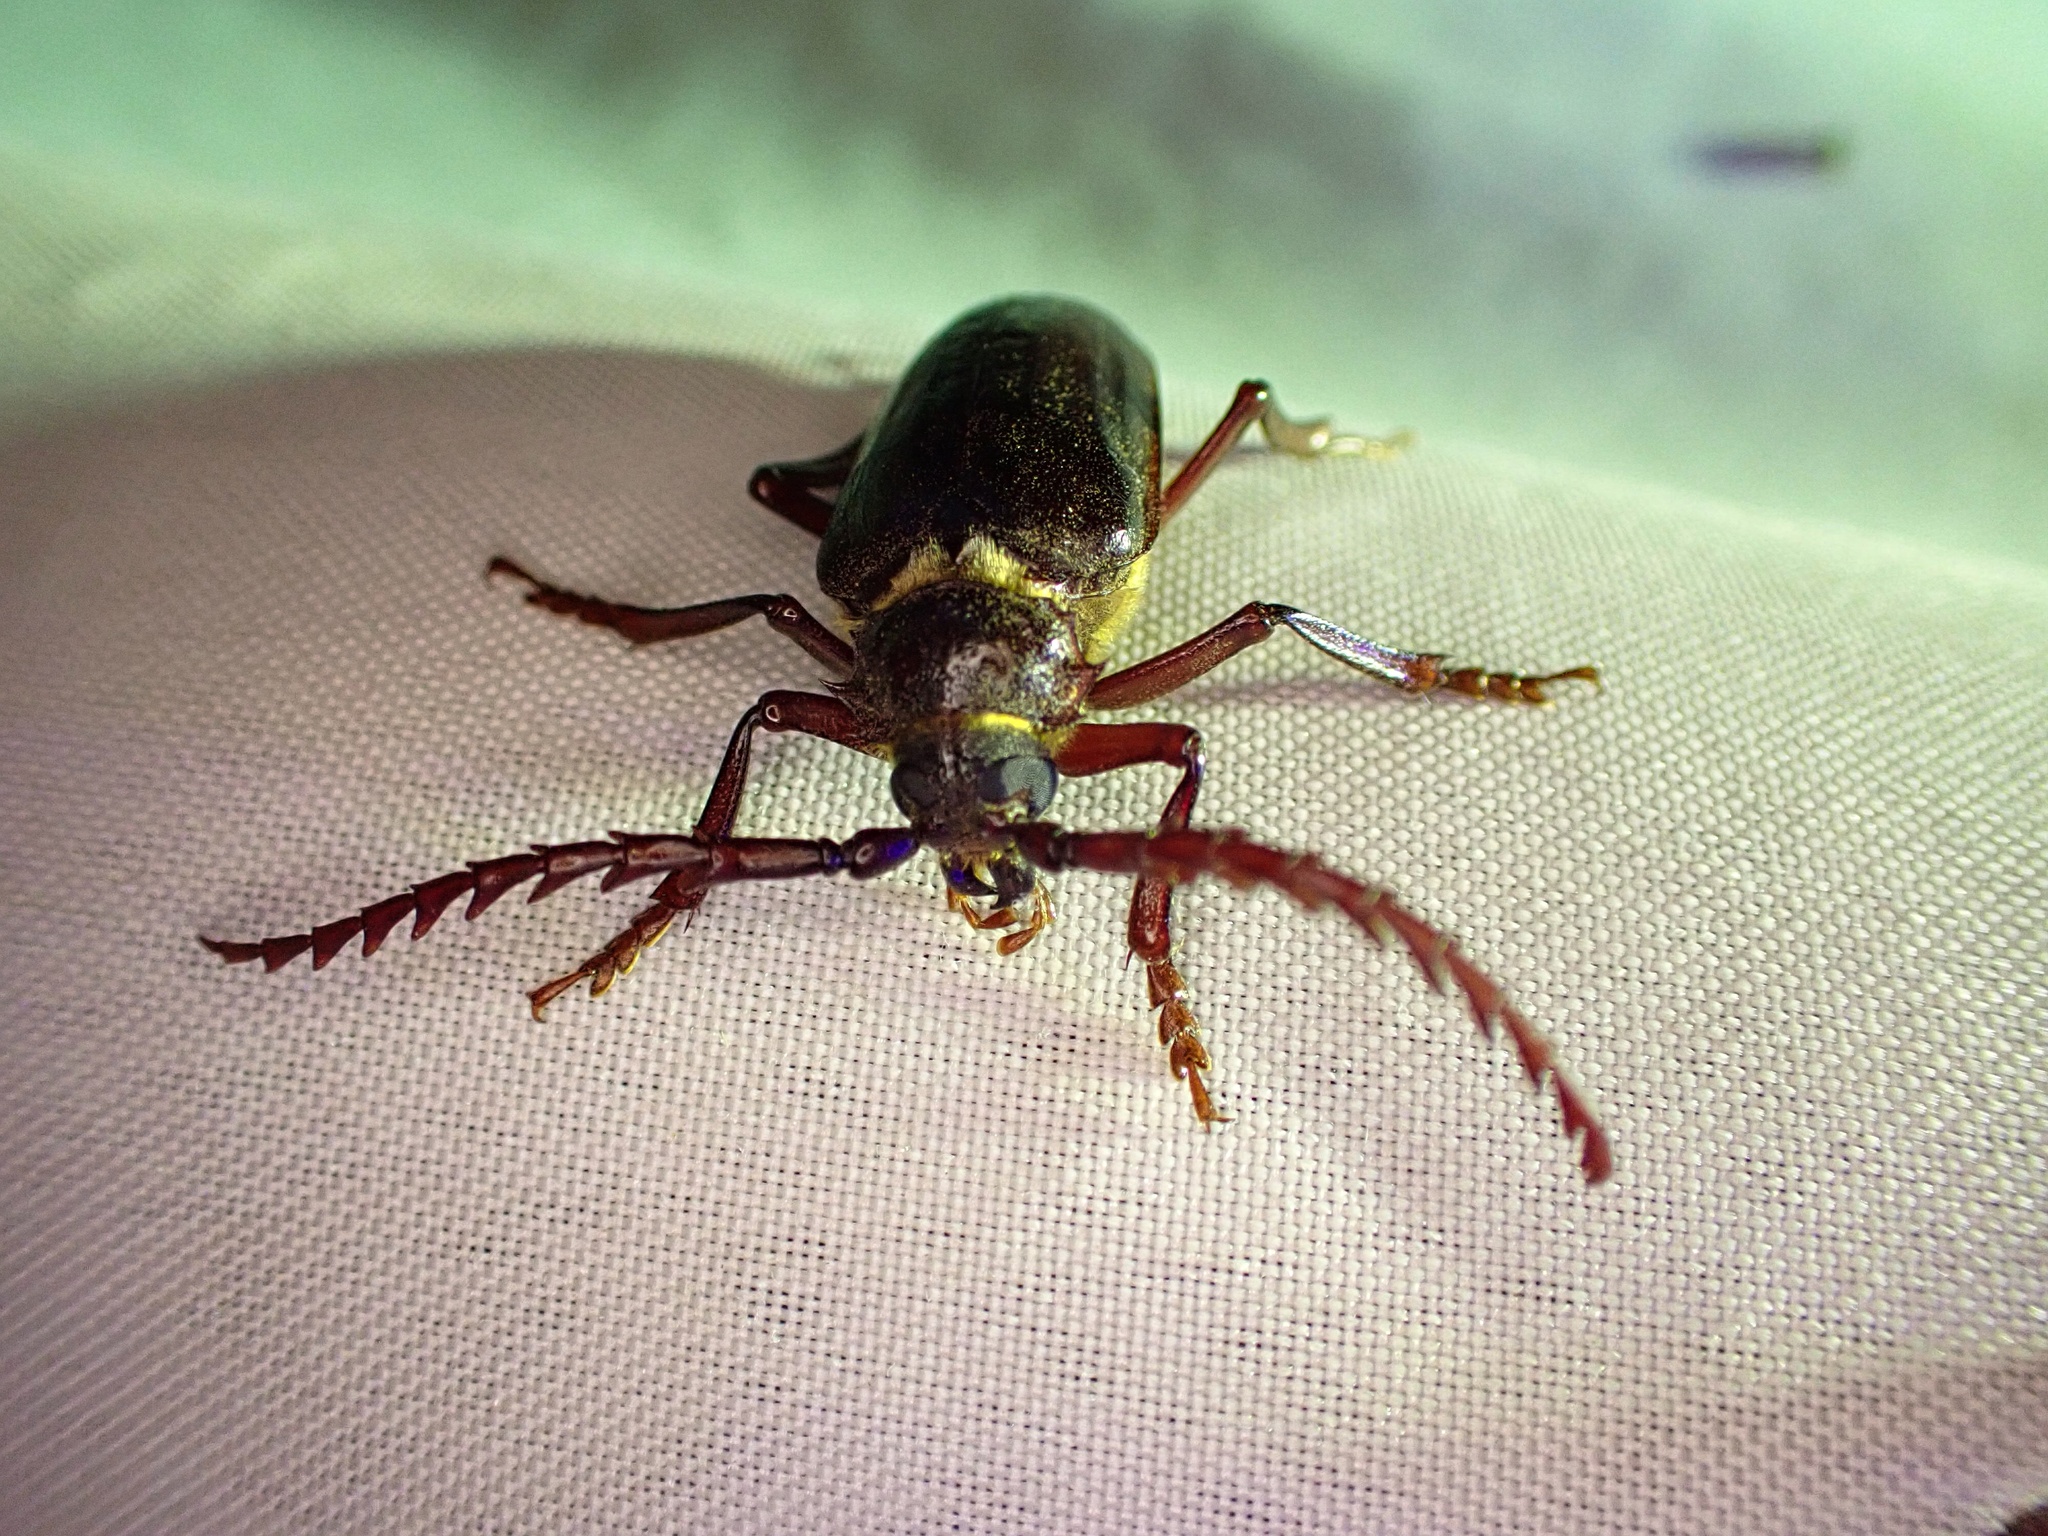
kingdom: Animalia
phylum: Arthropoda
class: Insecta
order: Coleoptera
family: Cerambycidae
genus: Prionus
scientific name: Prionus californicus
